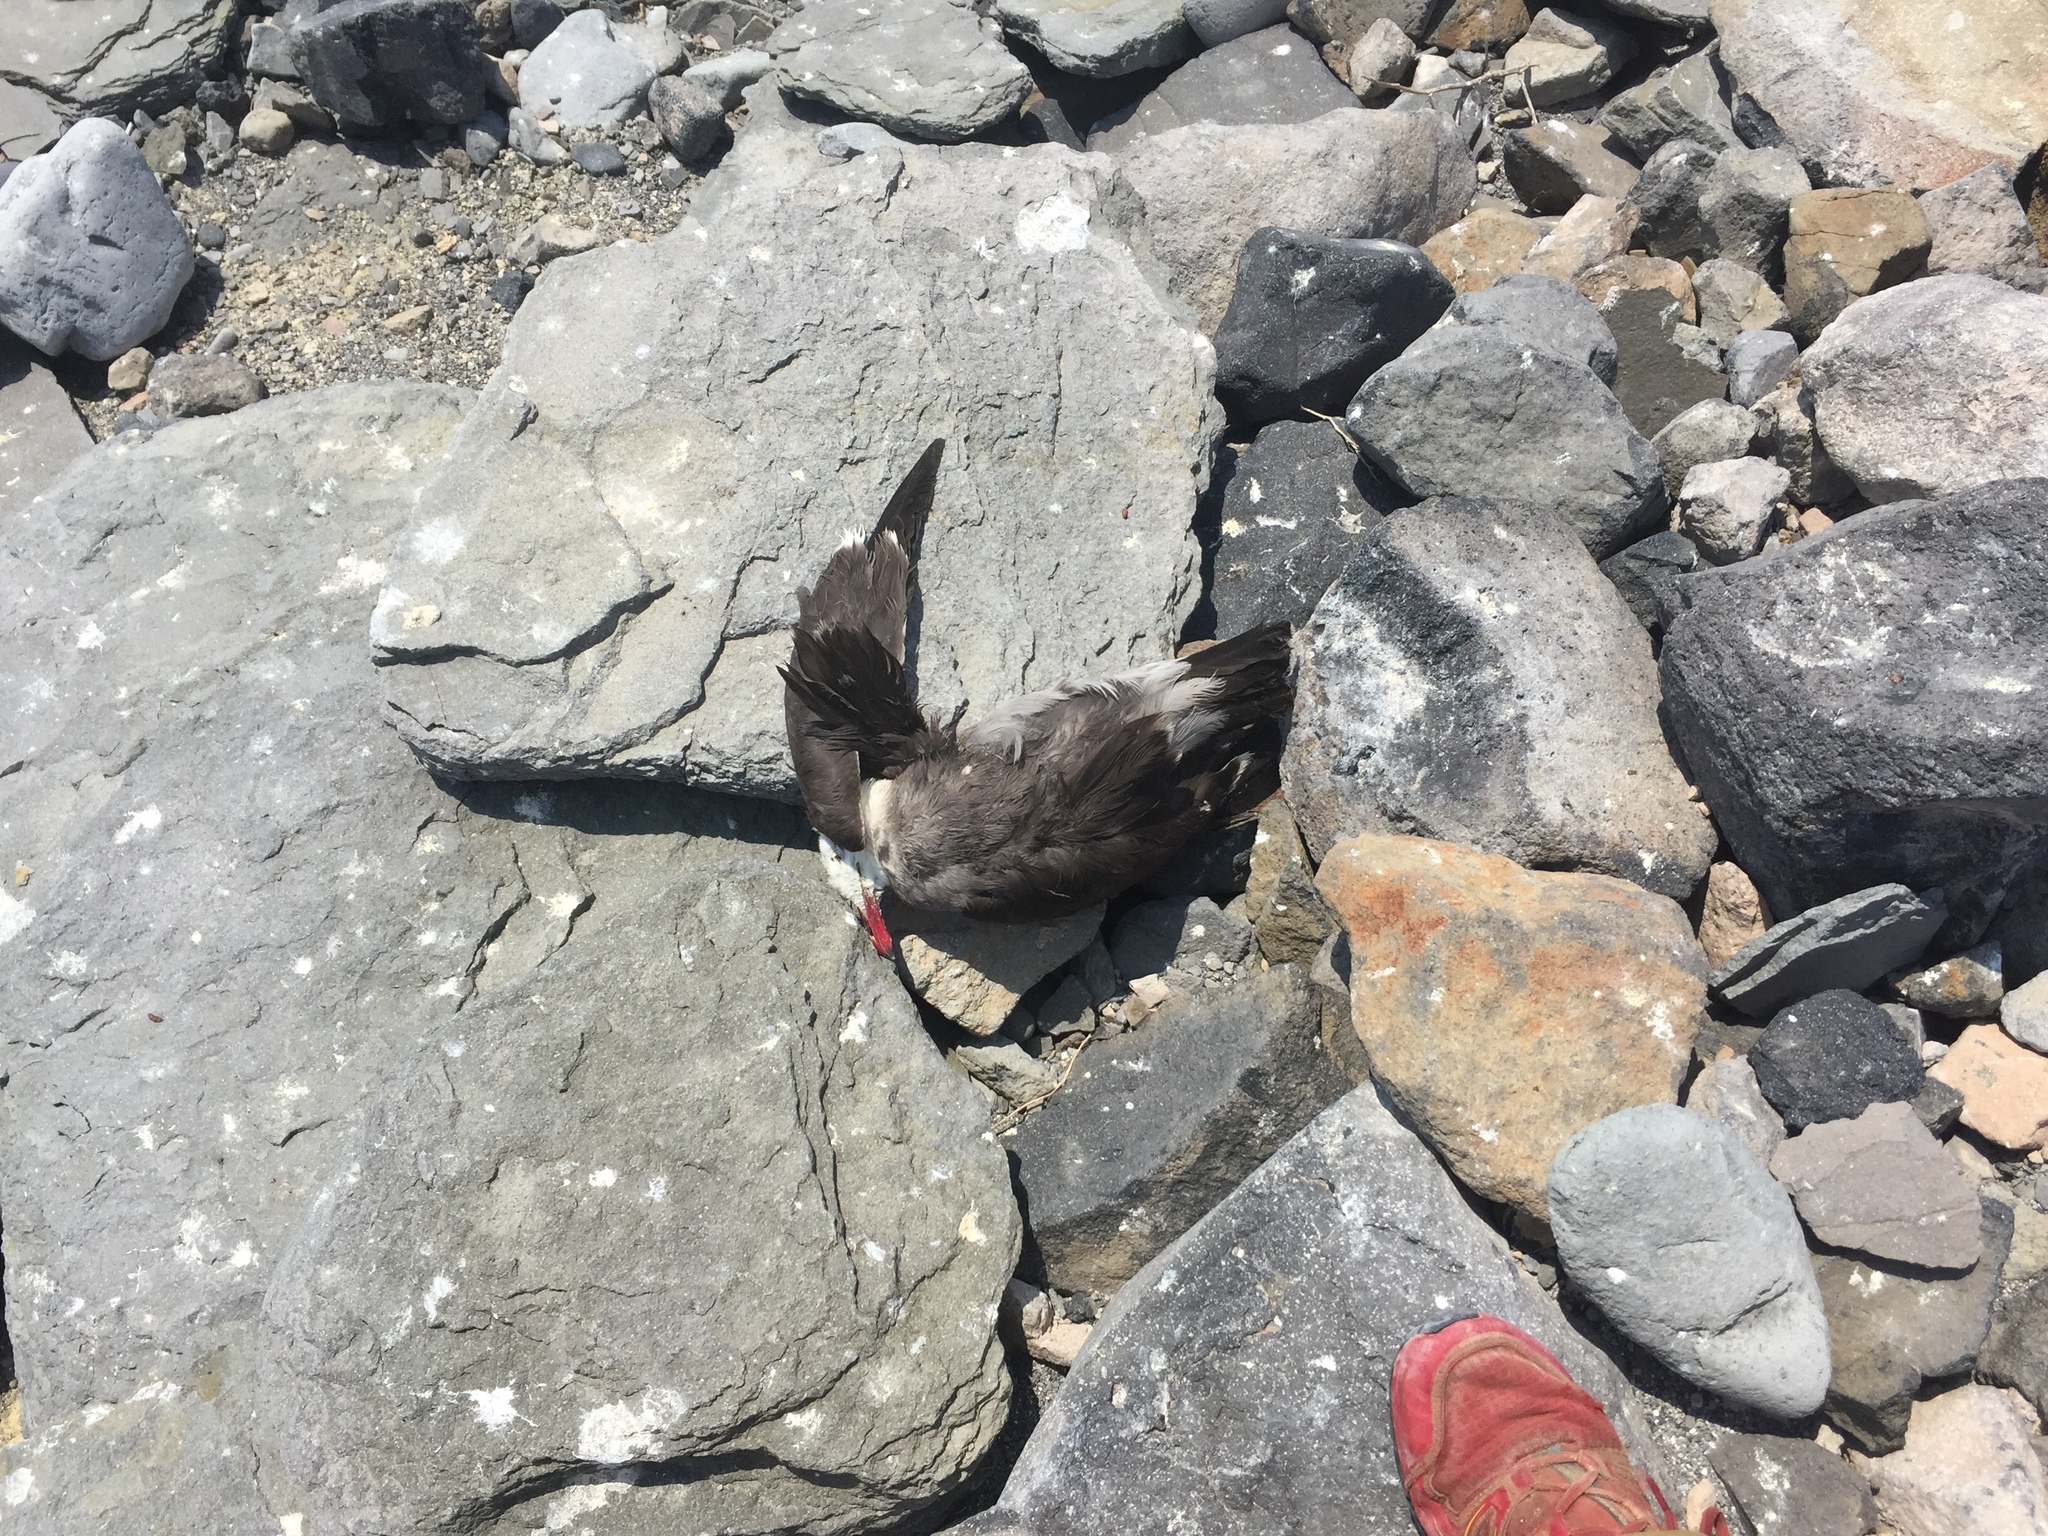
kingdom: Animalia
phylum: Chordata
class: Aves
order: Charadriiformes
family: Laridae
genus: Larus
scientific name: Larus heermanni
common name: Heermann's gull
